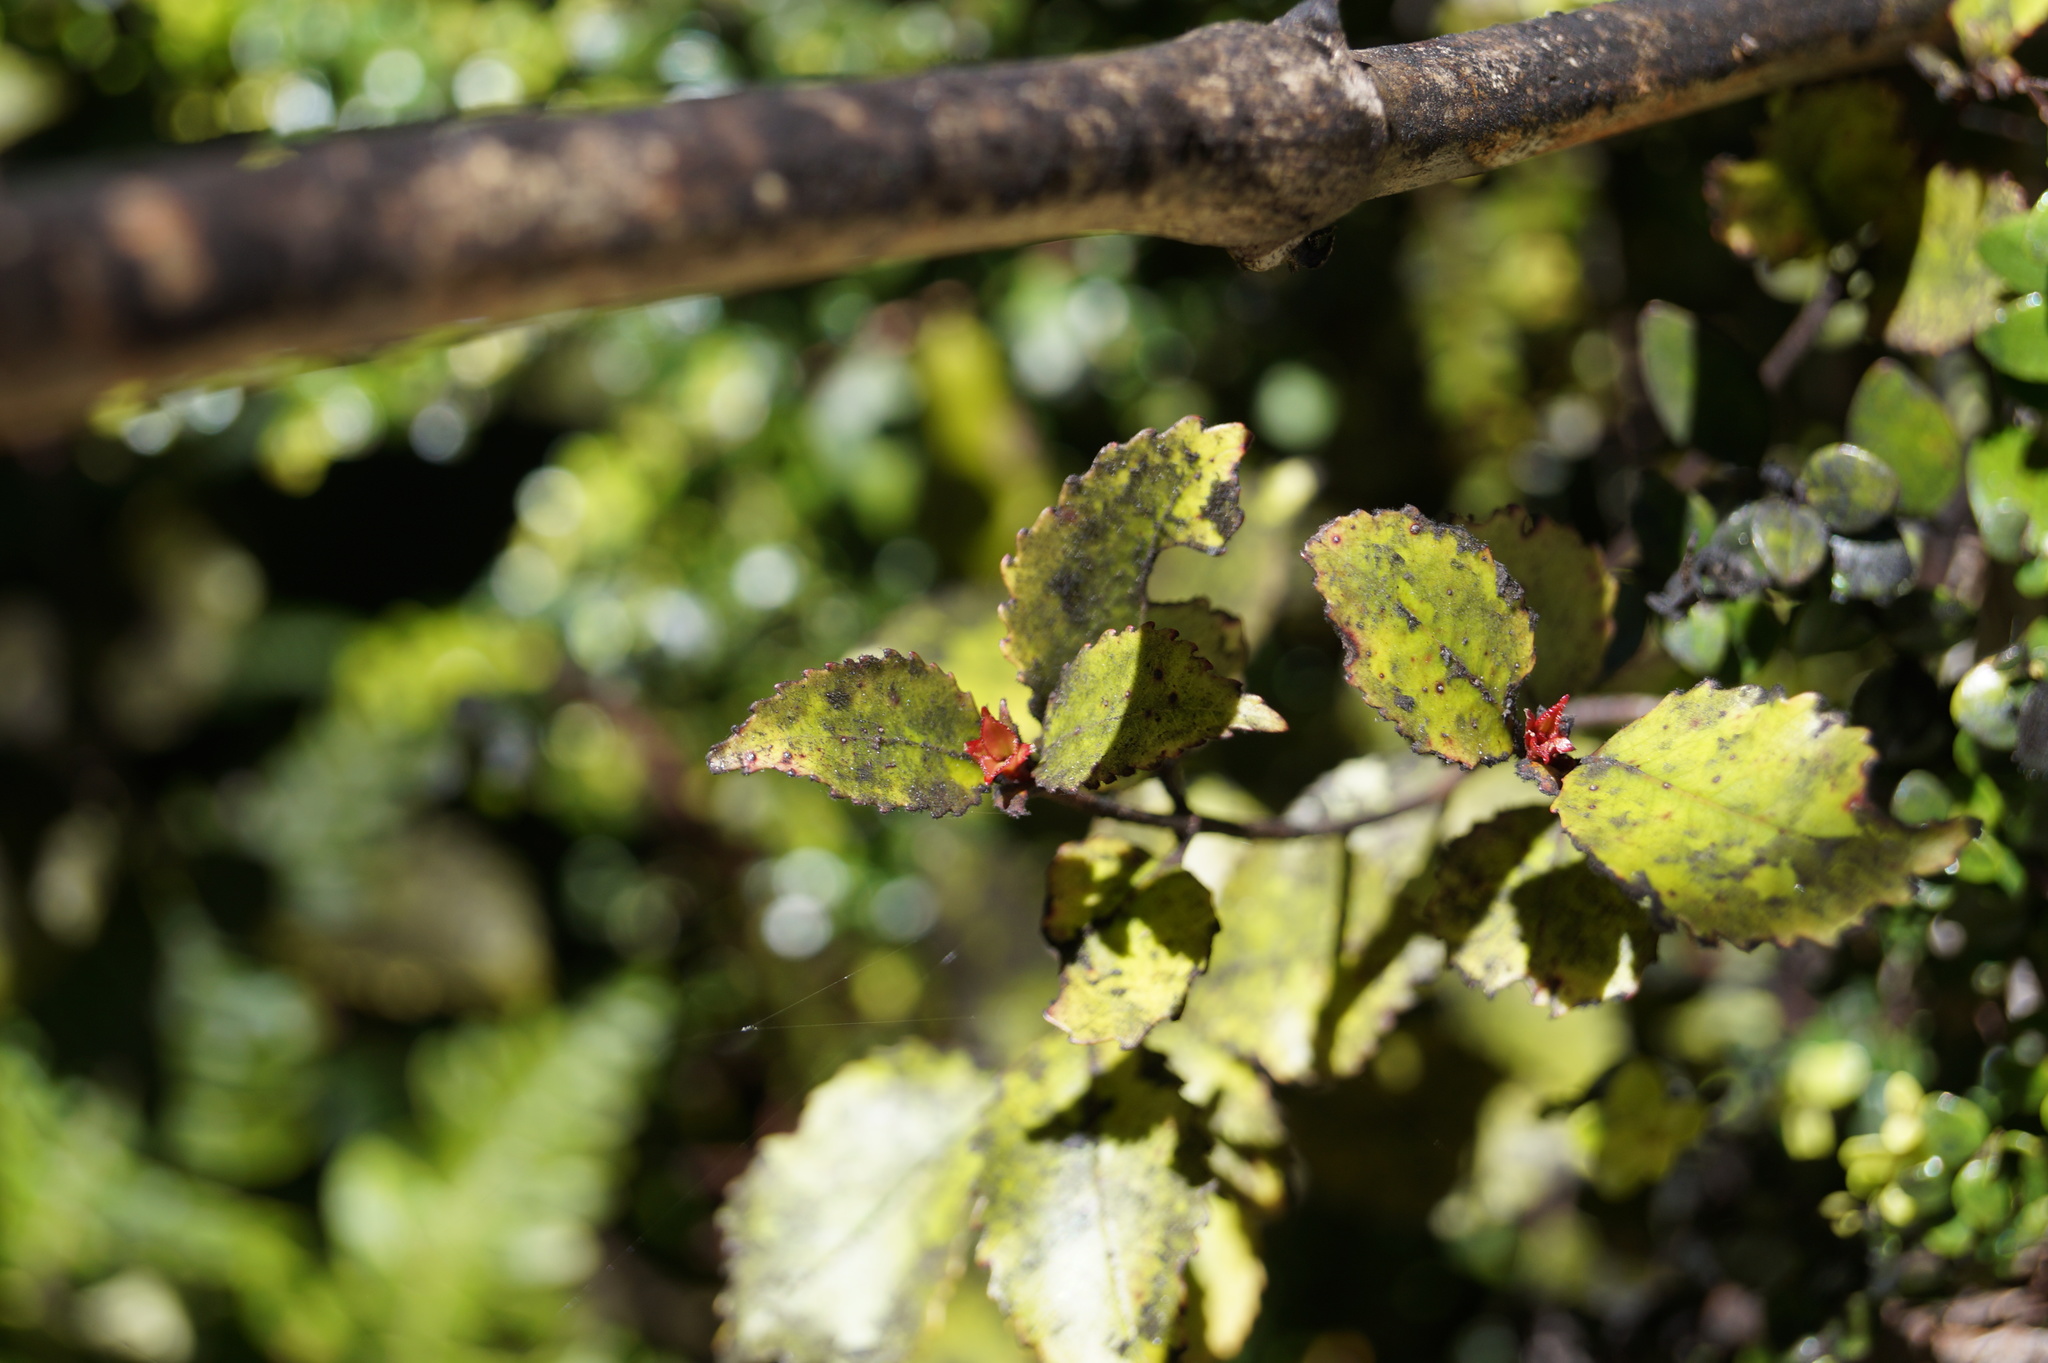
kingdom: Plantae
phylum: Tracheophyta
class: Magnoliopsida
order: Oxalidales
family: Cunoniaceae
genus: Pterophylla
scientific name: Pterophylla racemosa
